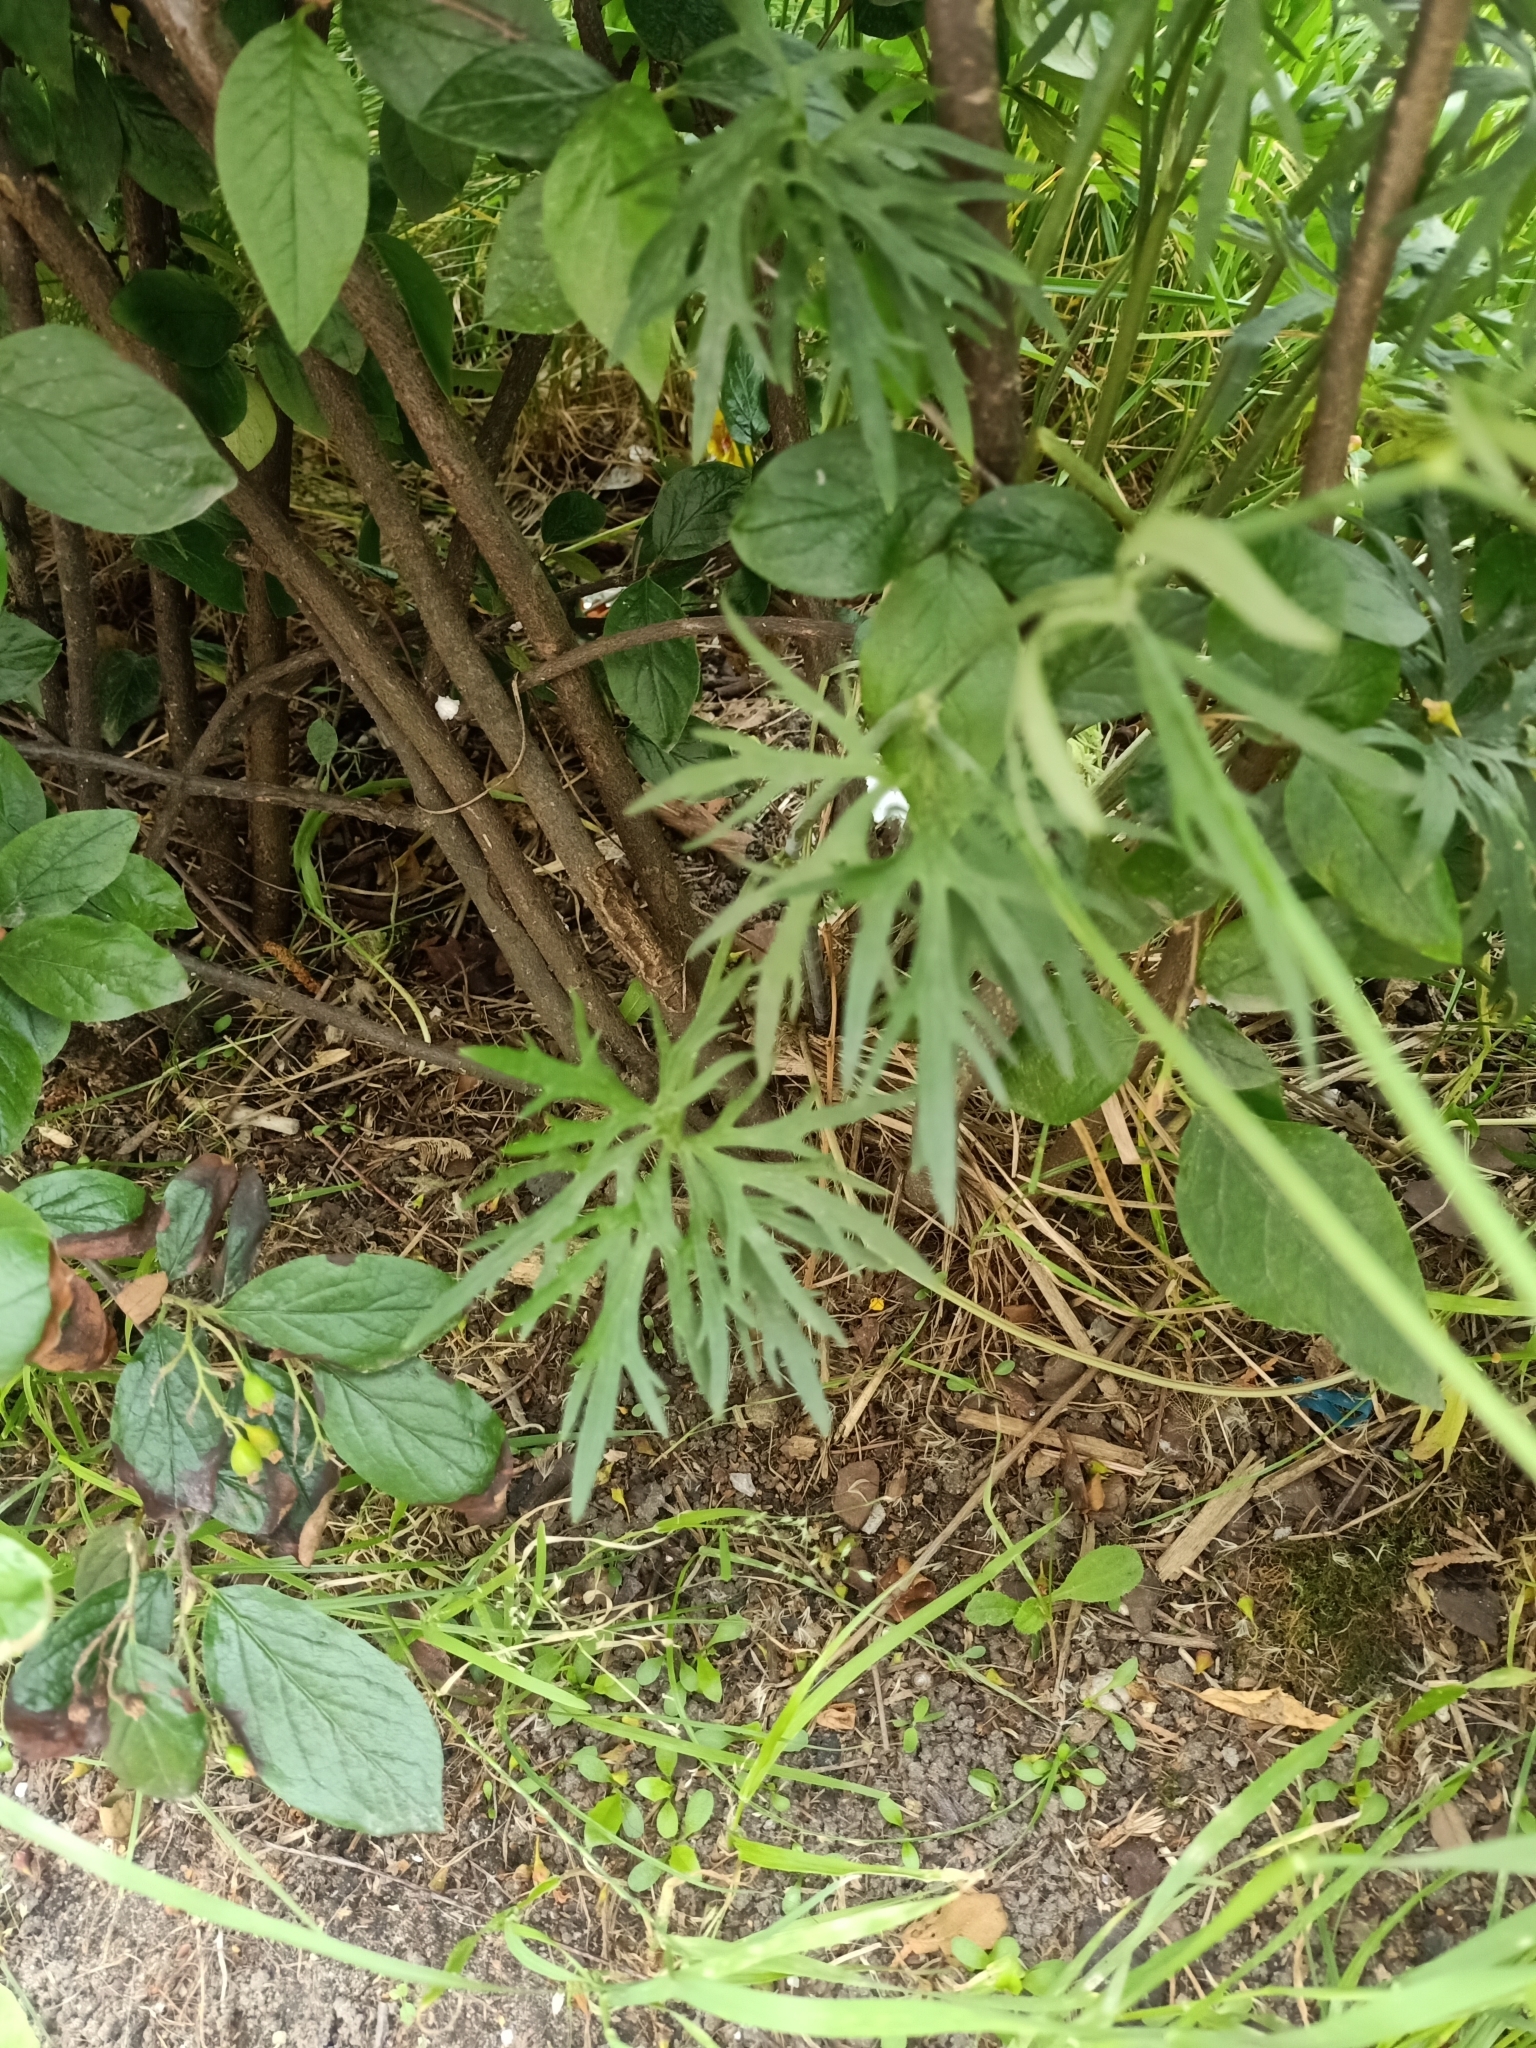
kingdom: Plantae
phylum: Tracheophyta
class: Magnoliopsida
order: Ranunculales
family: Ranunculaceae
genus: Ranunculus
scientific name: Ranunculus acris
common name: Meadow buttercup
